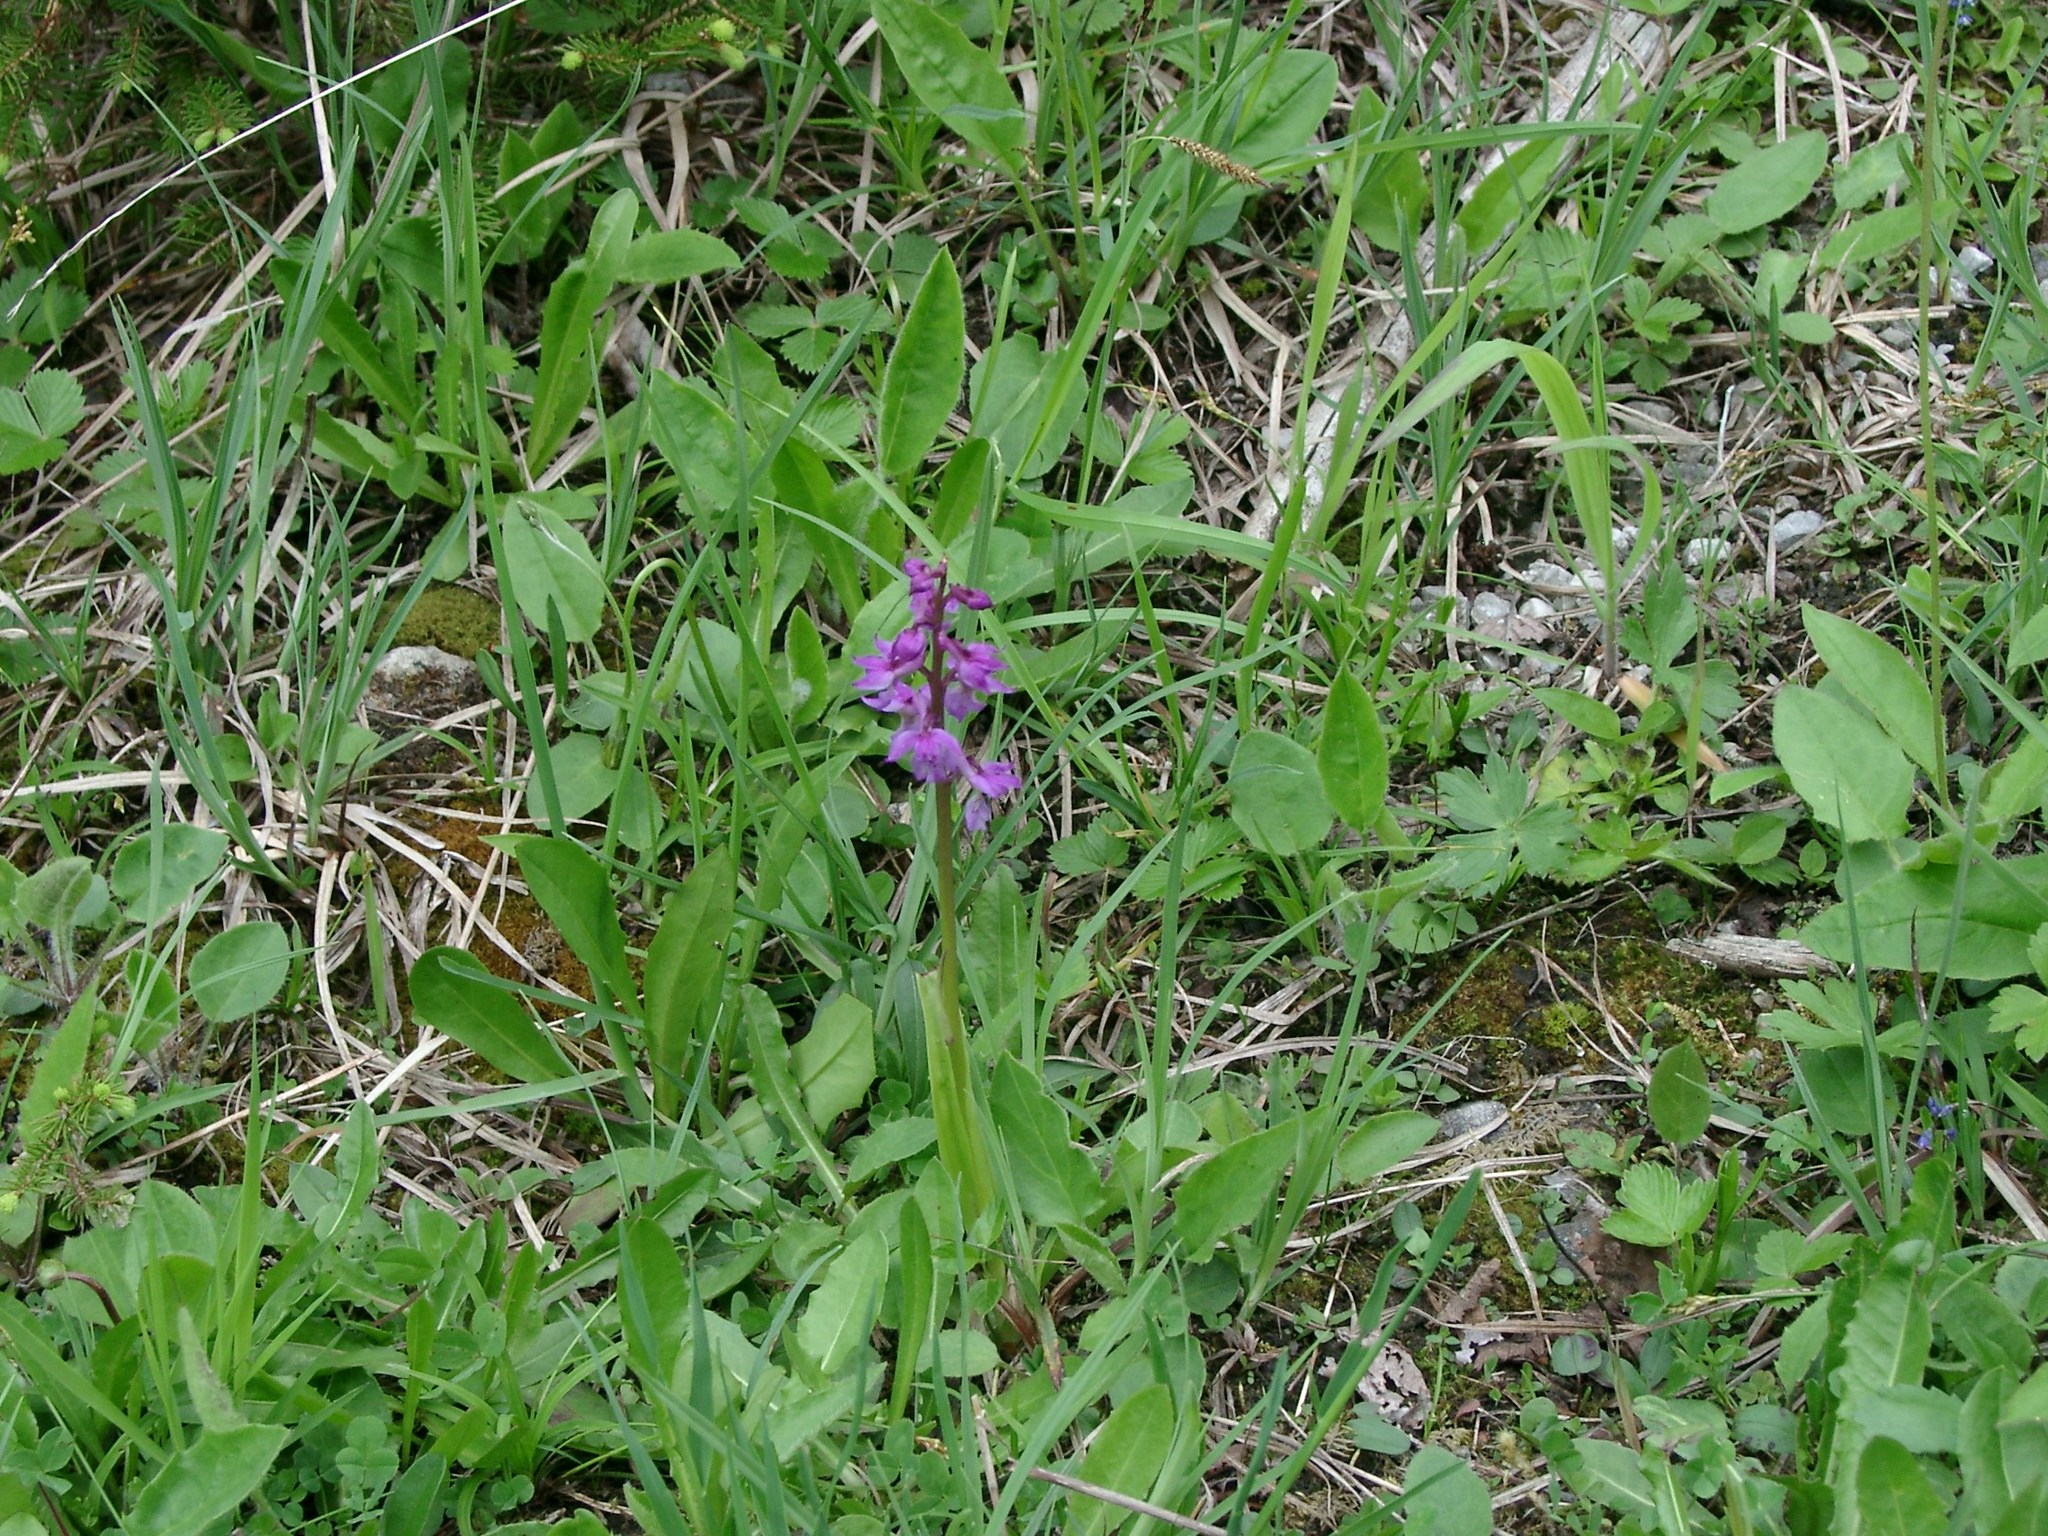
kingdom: Plantae
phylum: Tracheophyta
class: Liliopsida
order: Asparagales
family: Orchidaceae
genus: Orchis
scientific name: Orchis mascula
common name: Early-purple orchid
